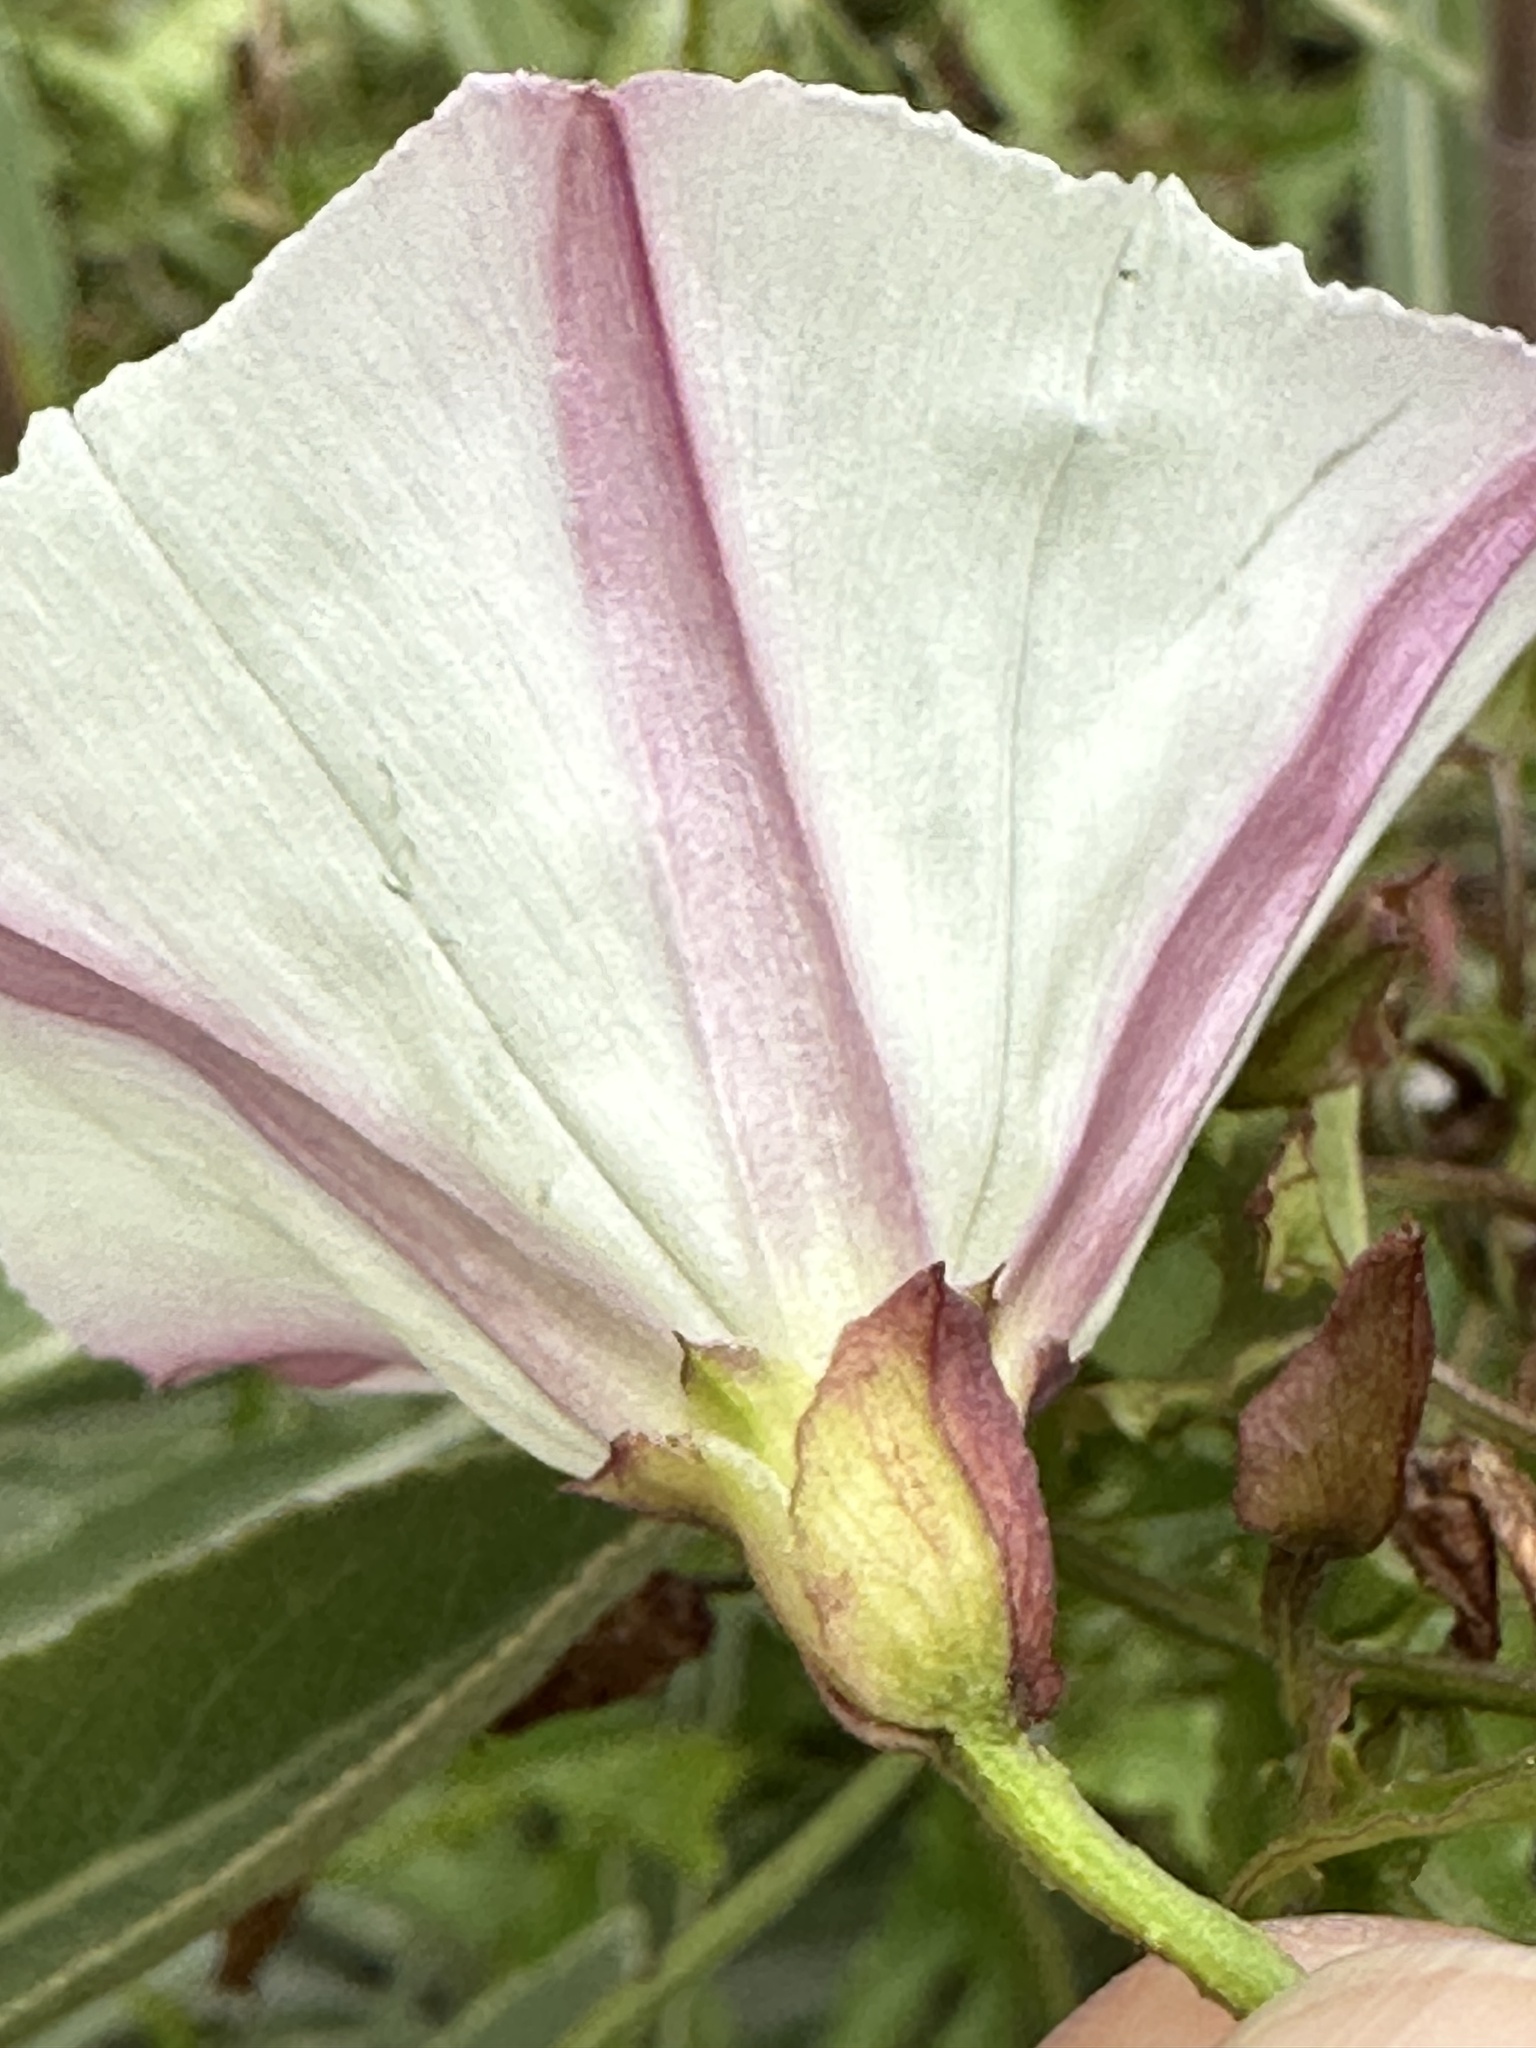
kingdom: Plantae
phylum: Tracheophyta
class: Magnoliopsida
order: Solanales
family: Convolvulaceae
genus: Calystegia
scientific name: Calystegia macrostegia
